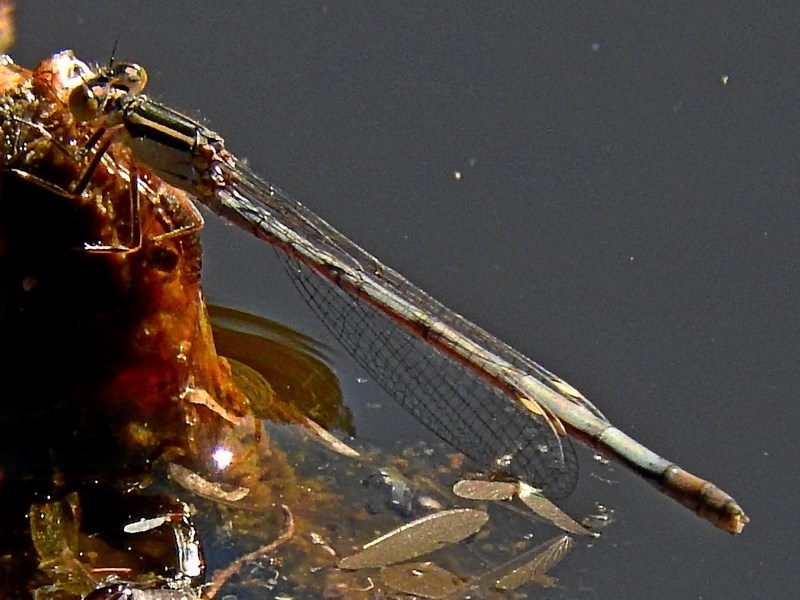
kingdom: Animalia
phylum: Arthropoda
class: Insecta
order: Odonata
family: Coenagrionidae
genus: Ischnura
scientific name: Ischnura heterosticta
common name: Common bluetail
